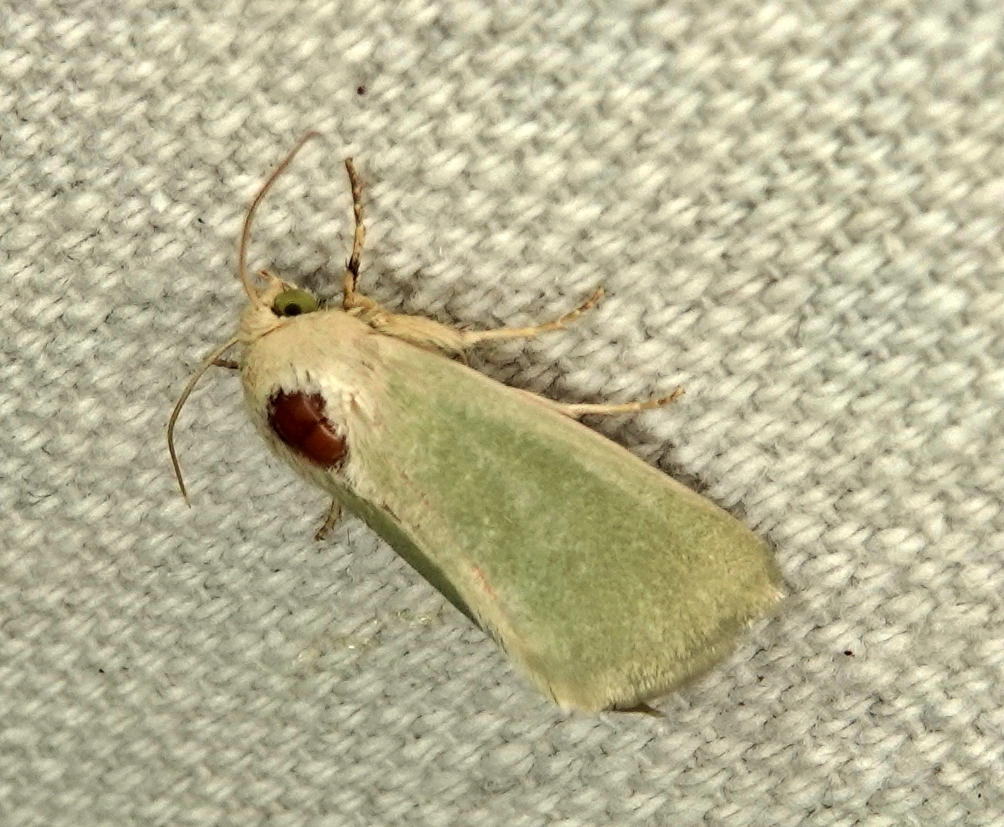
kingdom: Animalia
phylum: Arthropoda
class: Insecta
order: Lepidoptera
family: Noctuidae
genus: Schinia
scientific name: Schinia simplex
